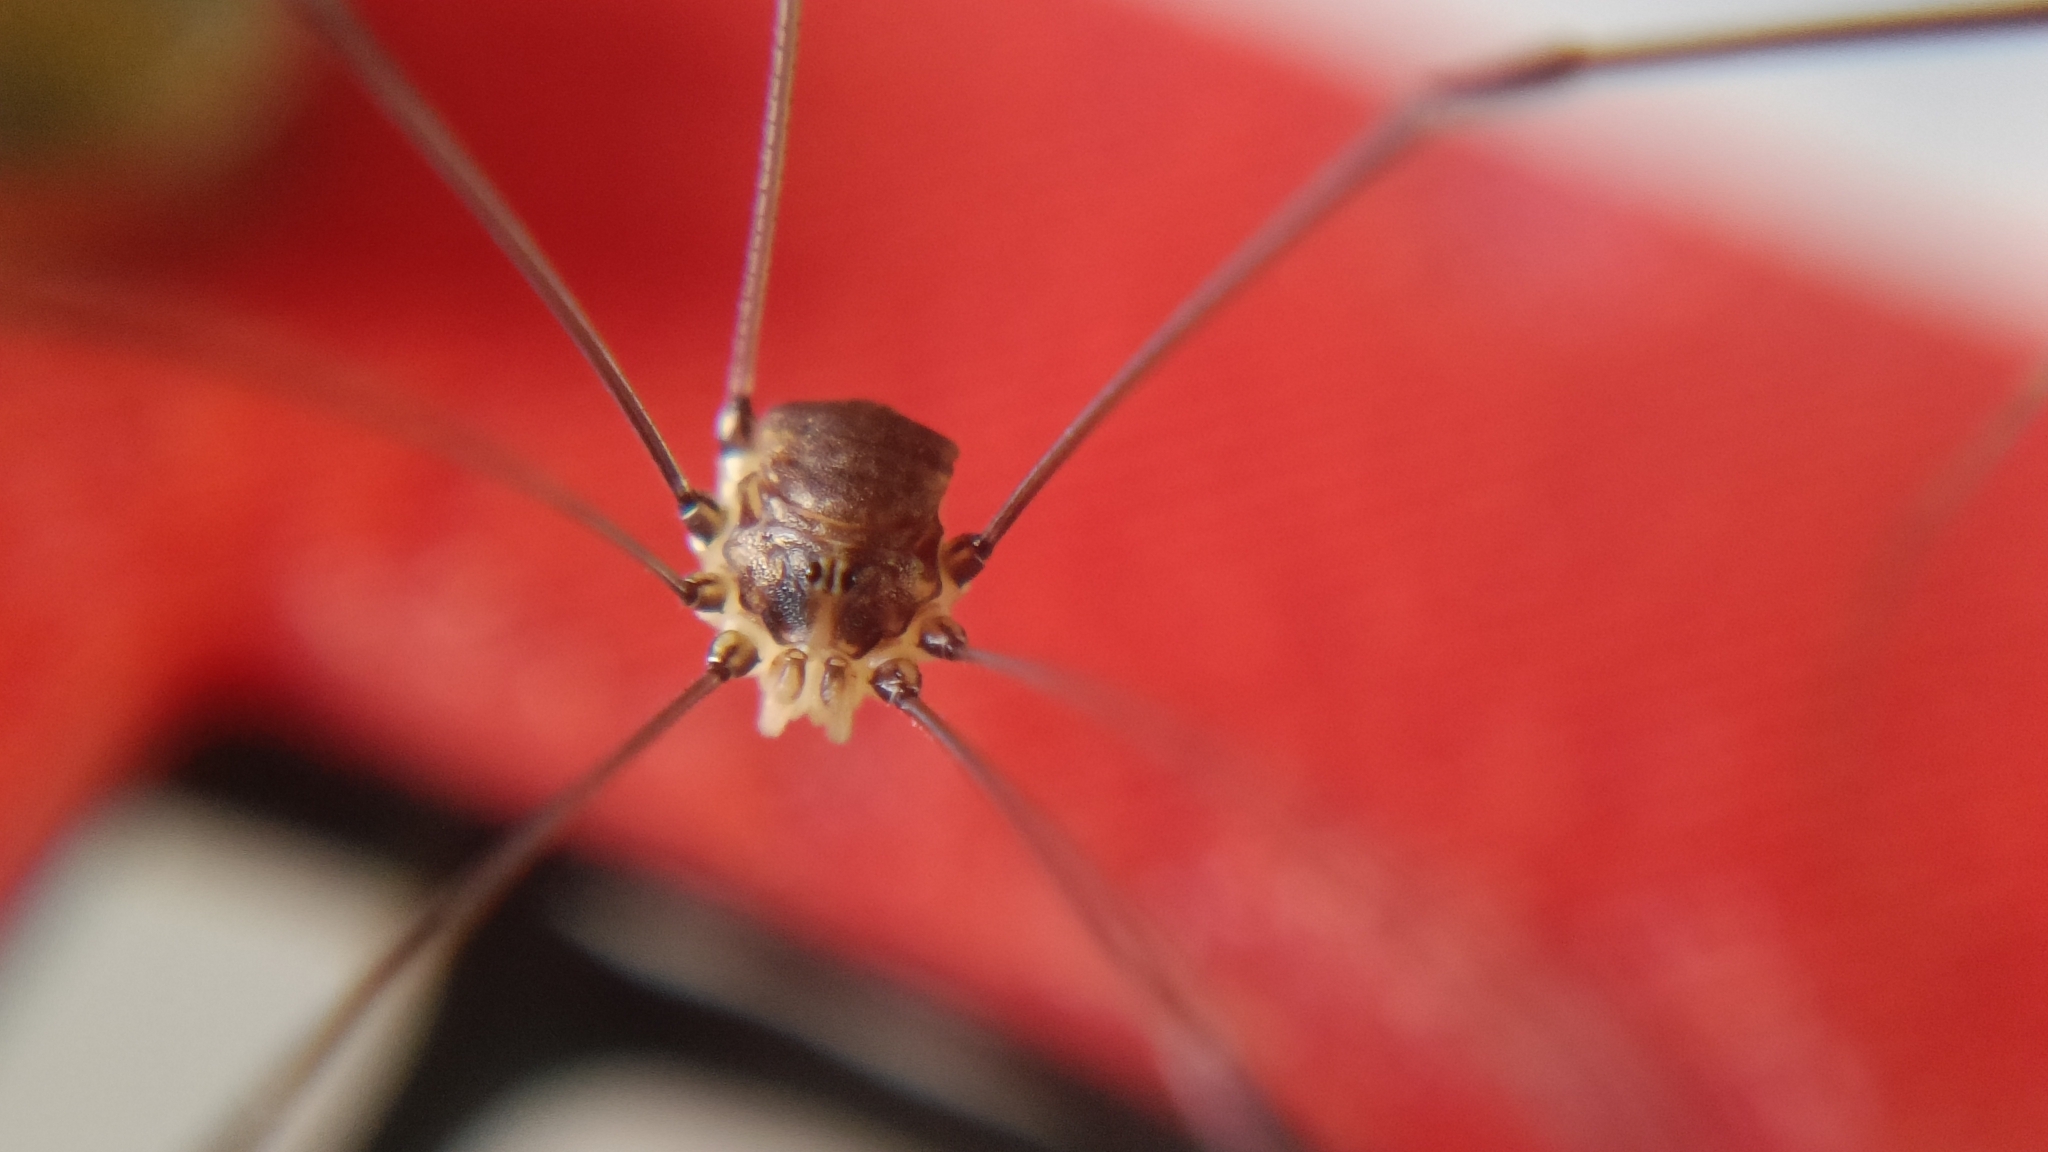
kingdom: Animalia
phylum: Arthropoda
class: Arachnida
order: Opiliones
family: Sclerosomatidae
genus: Leiobunum
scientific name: Leiobunum blackwalli
